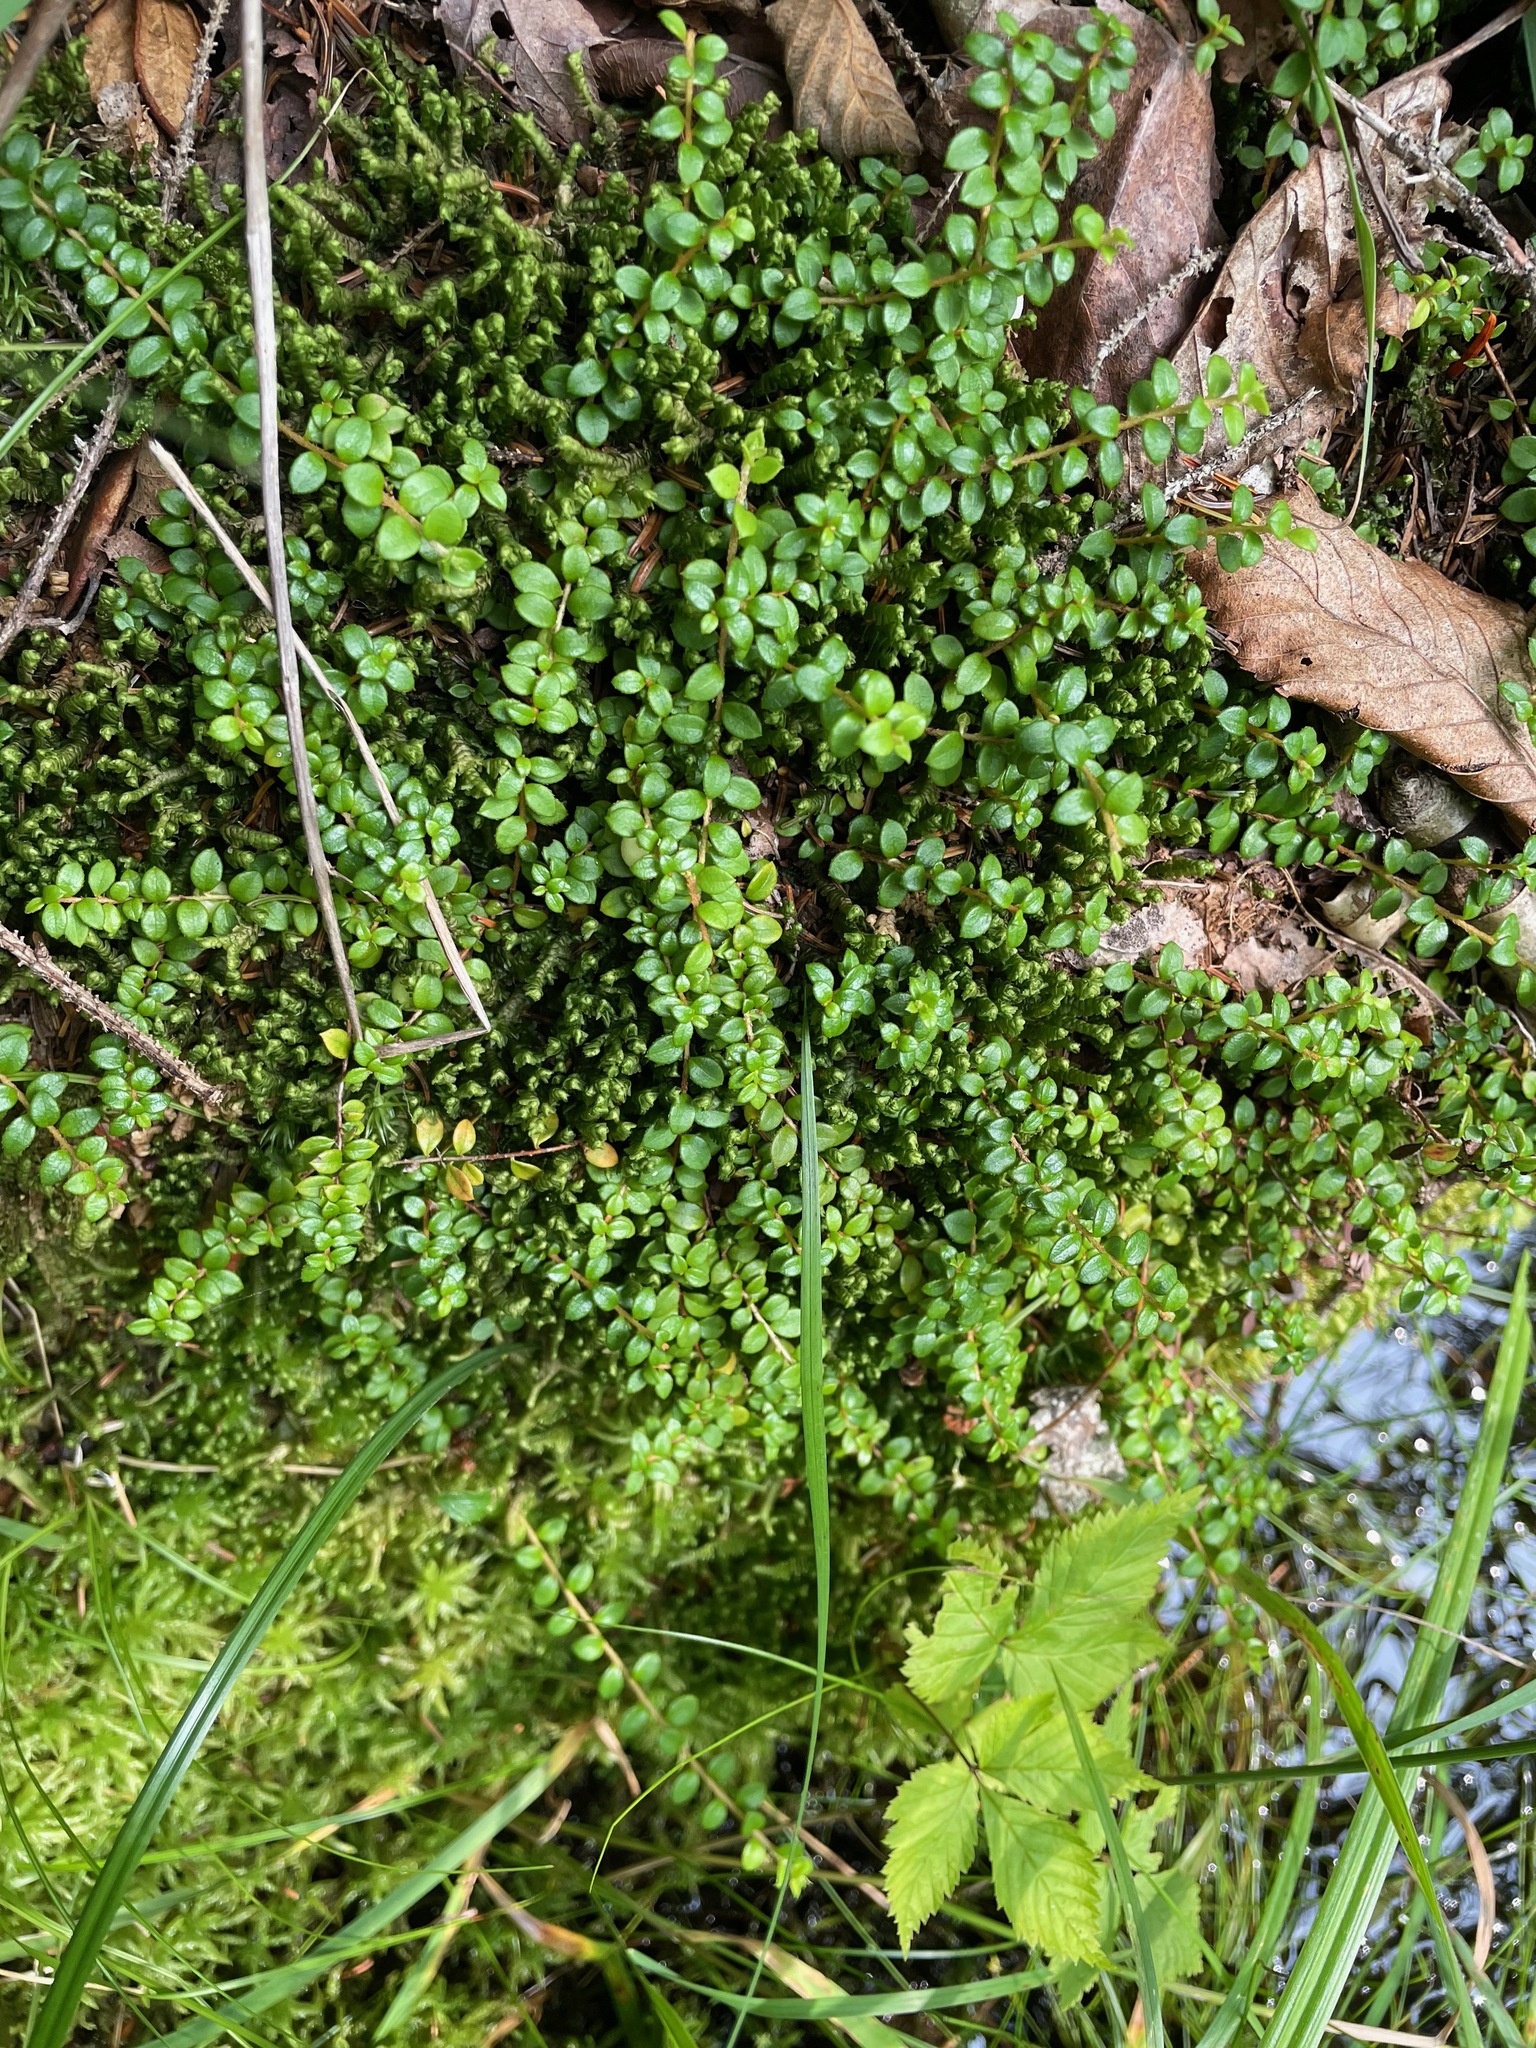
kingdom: Plantae
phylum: Tracheophyta
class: Magnoliopsida
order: Ericales
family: Ericaceae
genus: Gaultheria
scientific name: Gaultheria hispidula
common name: Cancer wintergreen
